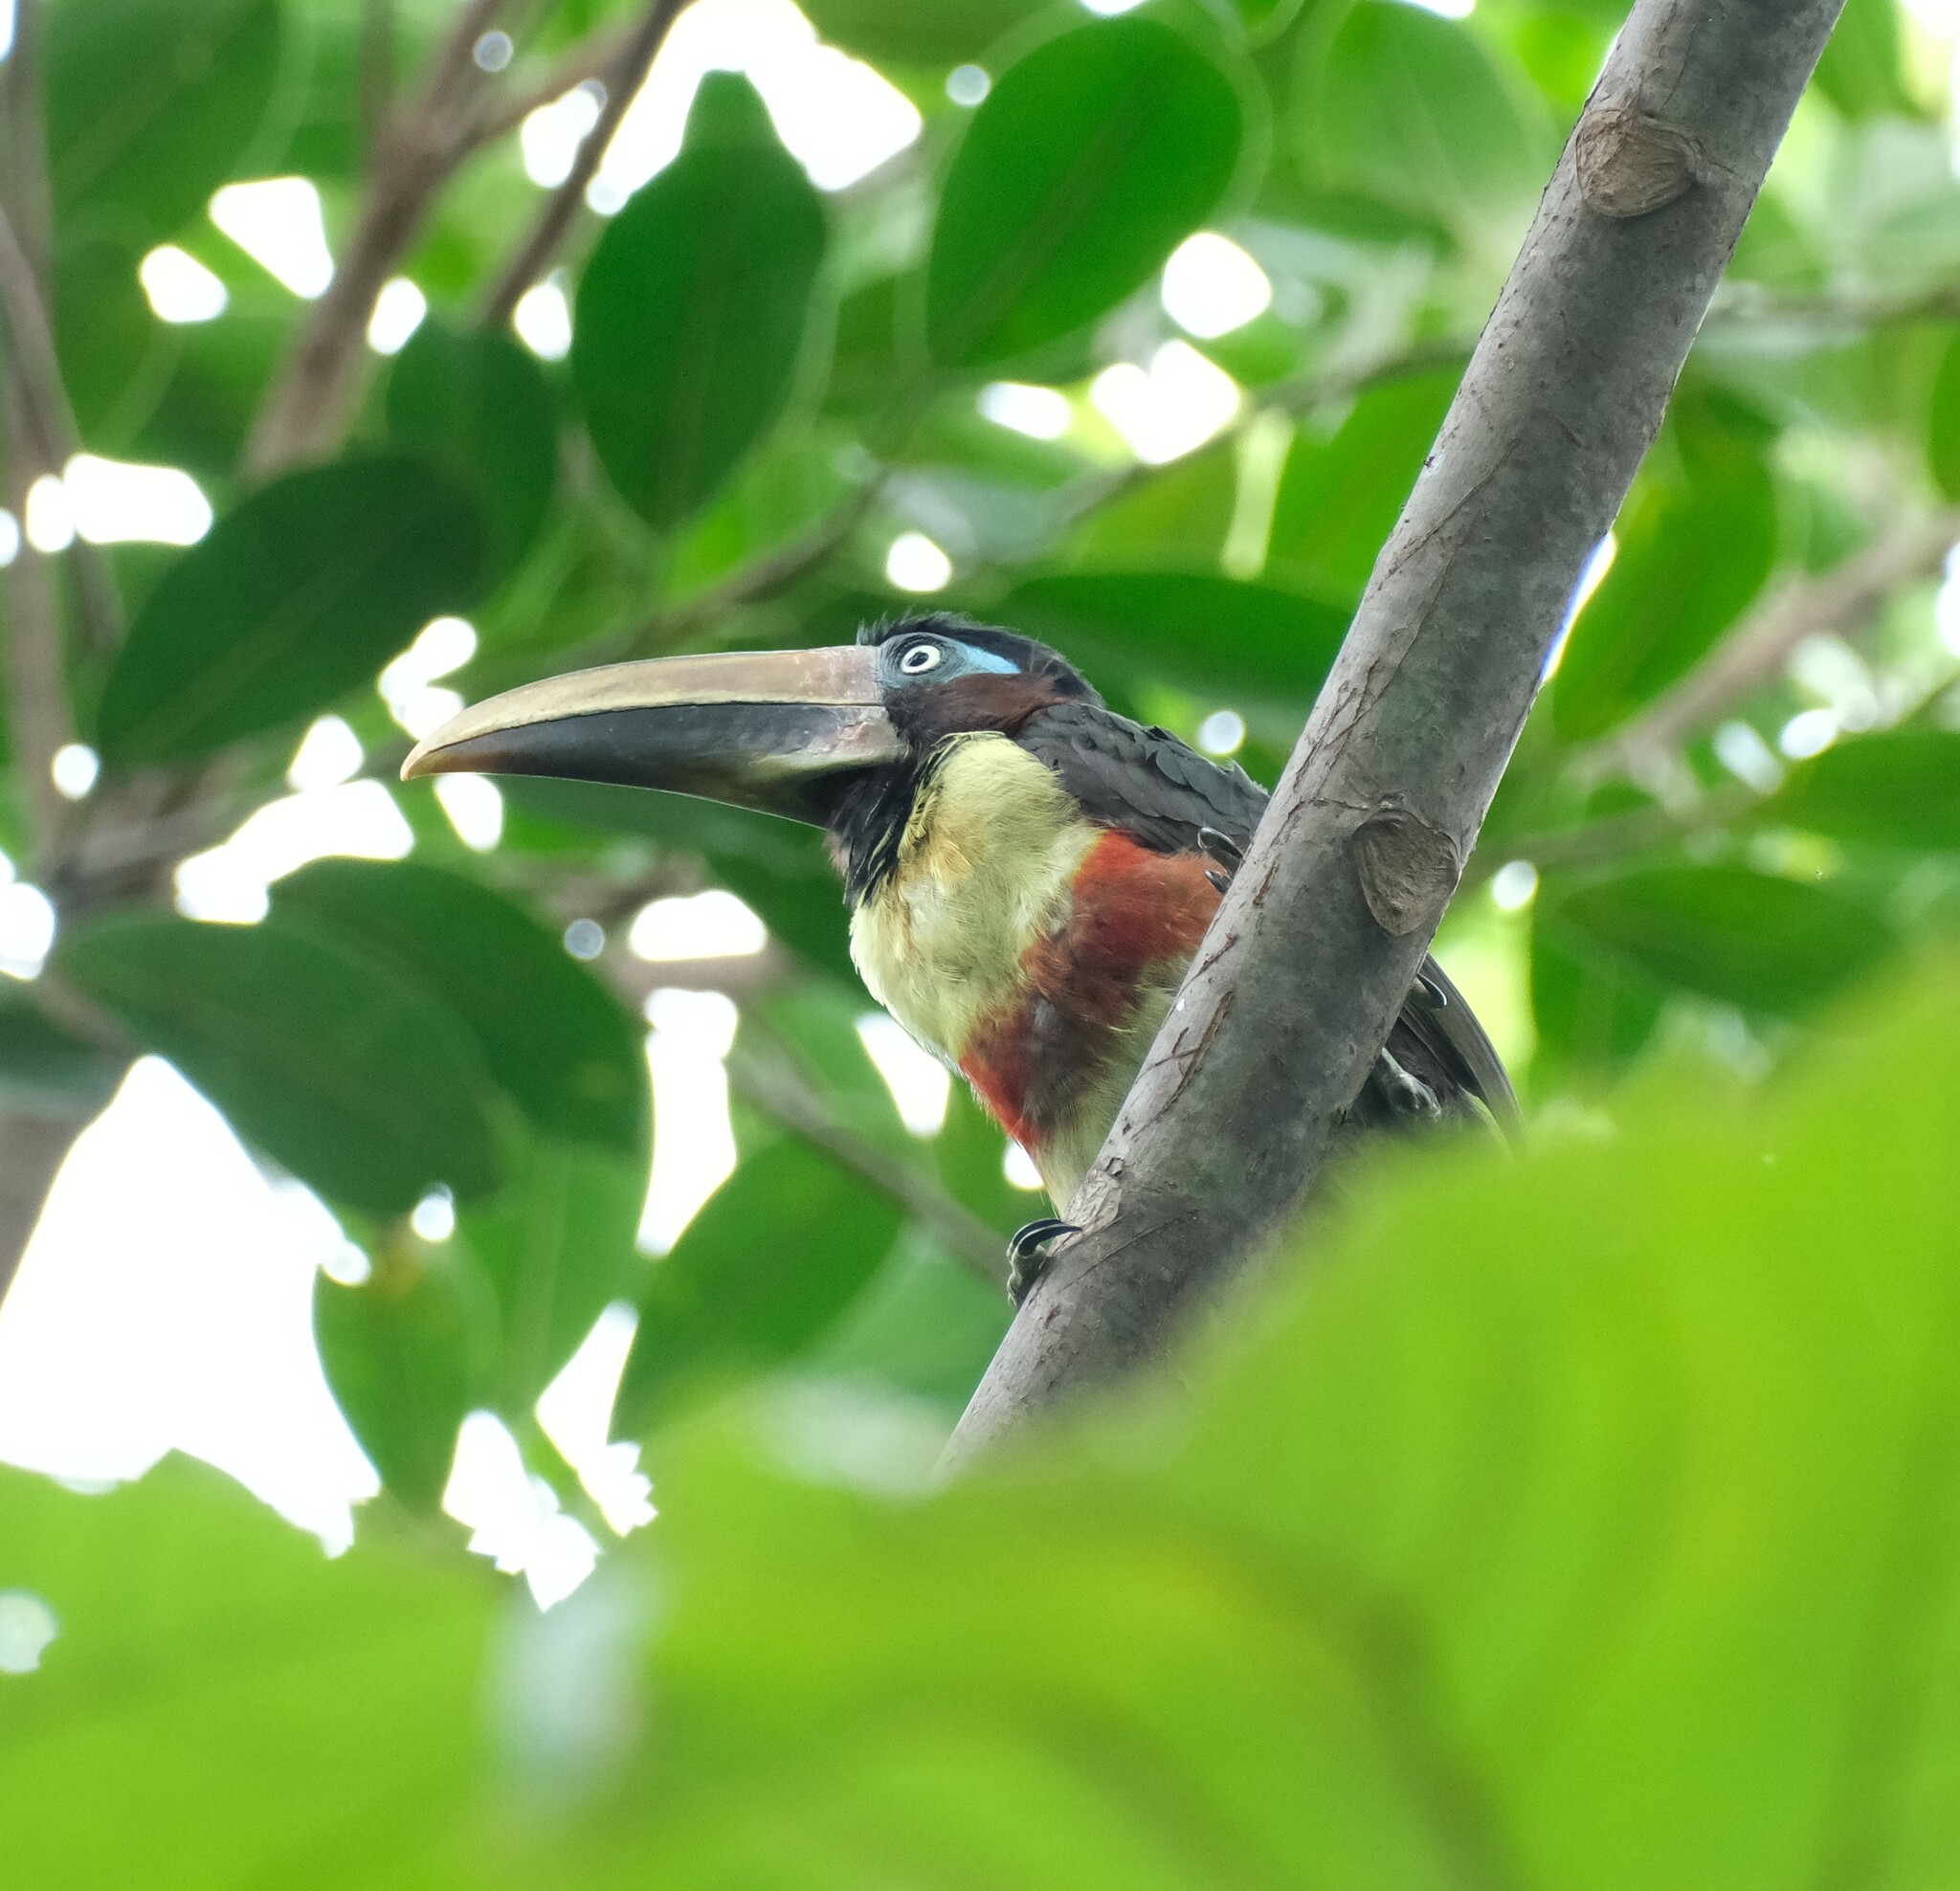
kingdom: Animalia
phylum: Chordata
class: Aves
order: Piciformes
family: Ramphastidae
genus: Pteroglossus
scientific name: Pteroglossus castanotis
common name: Chestnut-eared aracari
